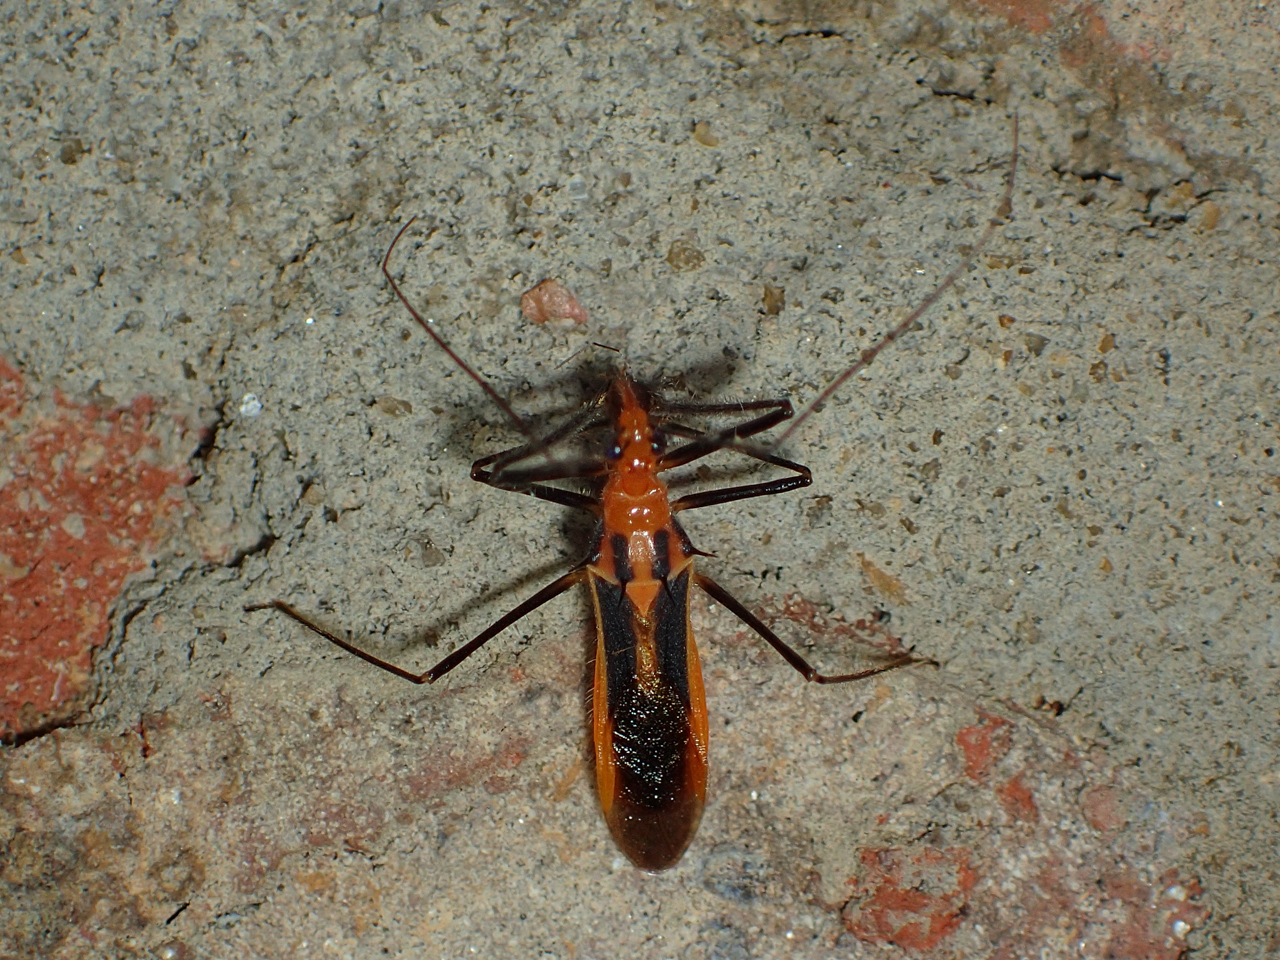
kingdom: Animalia
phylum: Arthropoda
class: Insecta
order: Hemiptera
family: Reduviidae
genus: Repipta
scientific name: Repipta taurus
